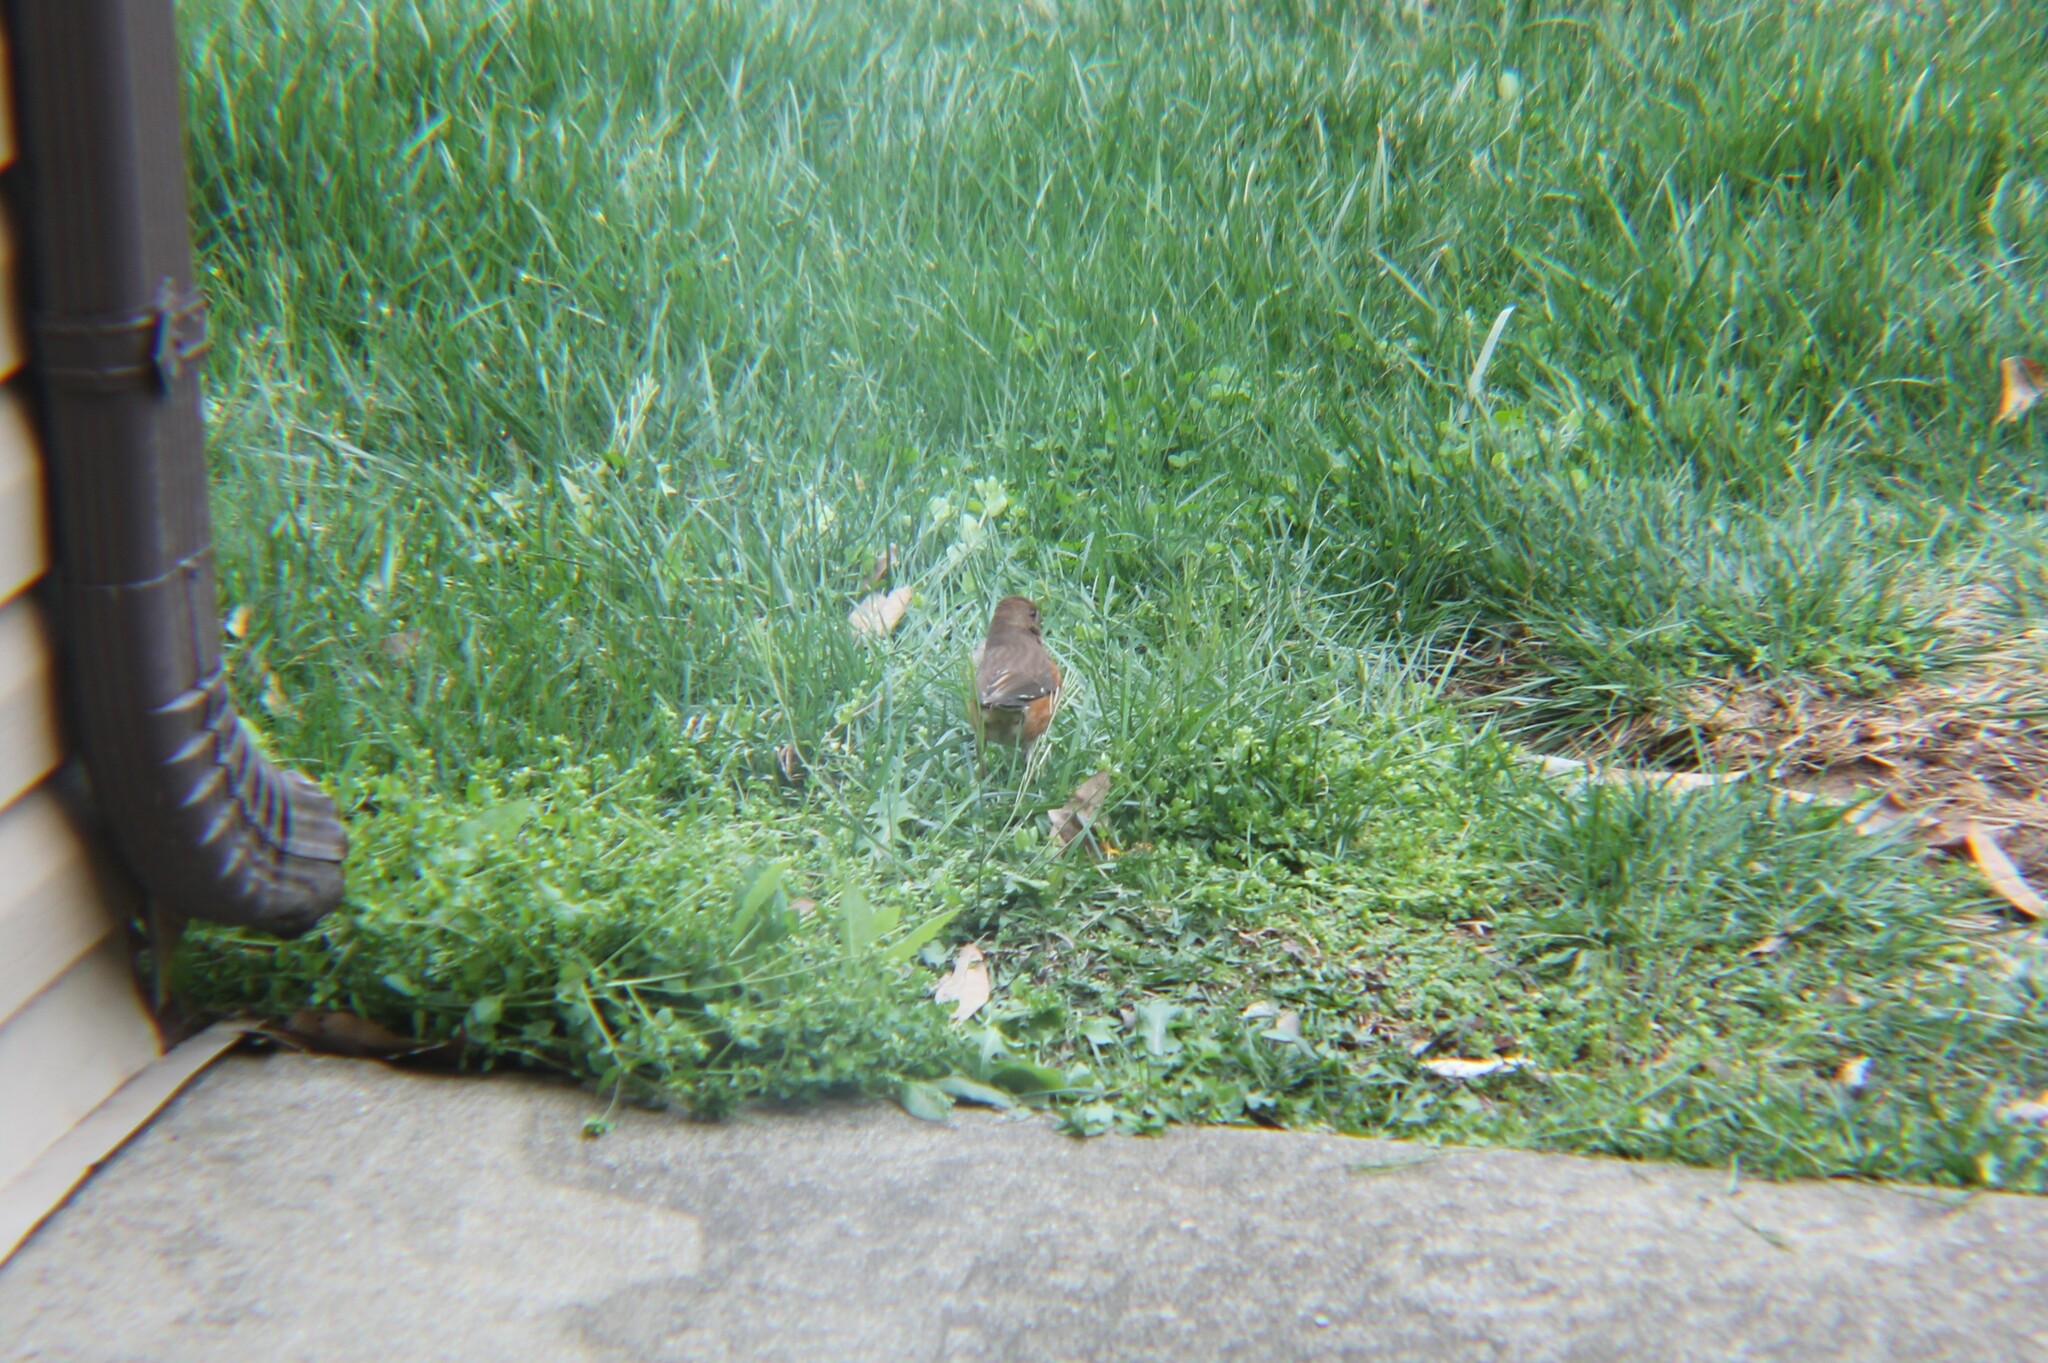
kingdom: Animalia
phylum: Chordata
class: Aves
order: Passeriformes
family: Passerellidae
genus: Pipilo
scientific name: Pipilo erythrophthalmus
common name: Eastern towhee
